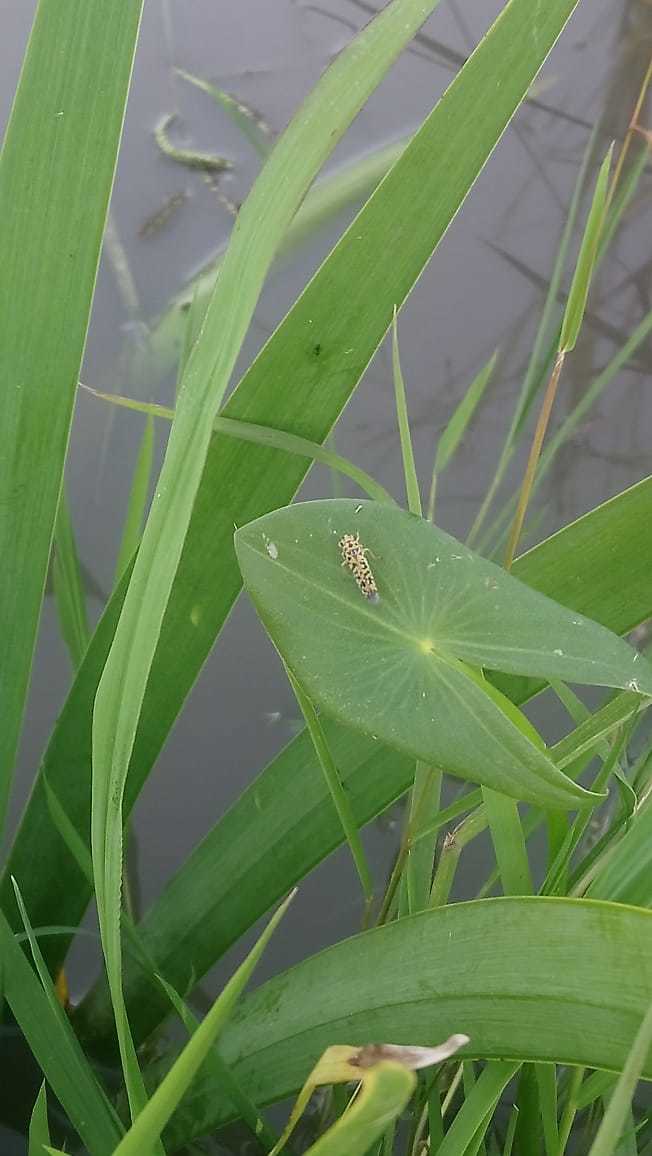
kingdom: Animalia
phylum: Arthropoda
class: Insecta
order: Hemiptera
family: Cicadellidae
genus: Pawiloma
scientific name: Pawiloma victima
